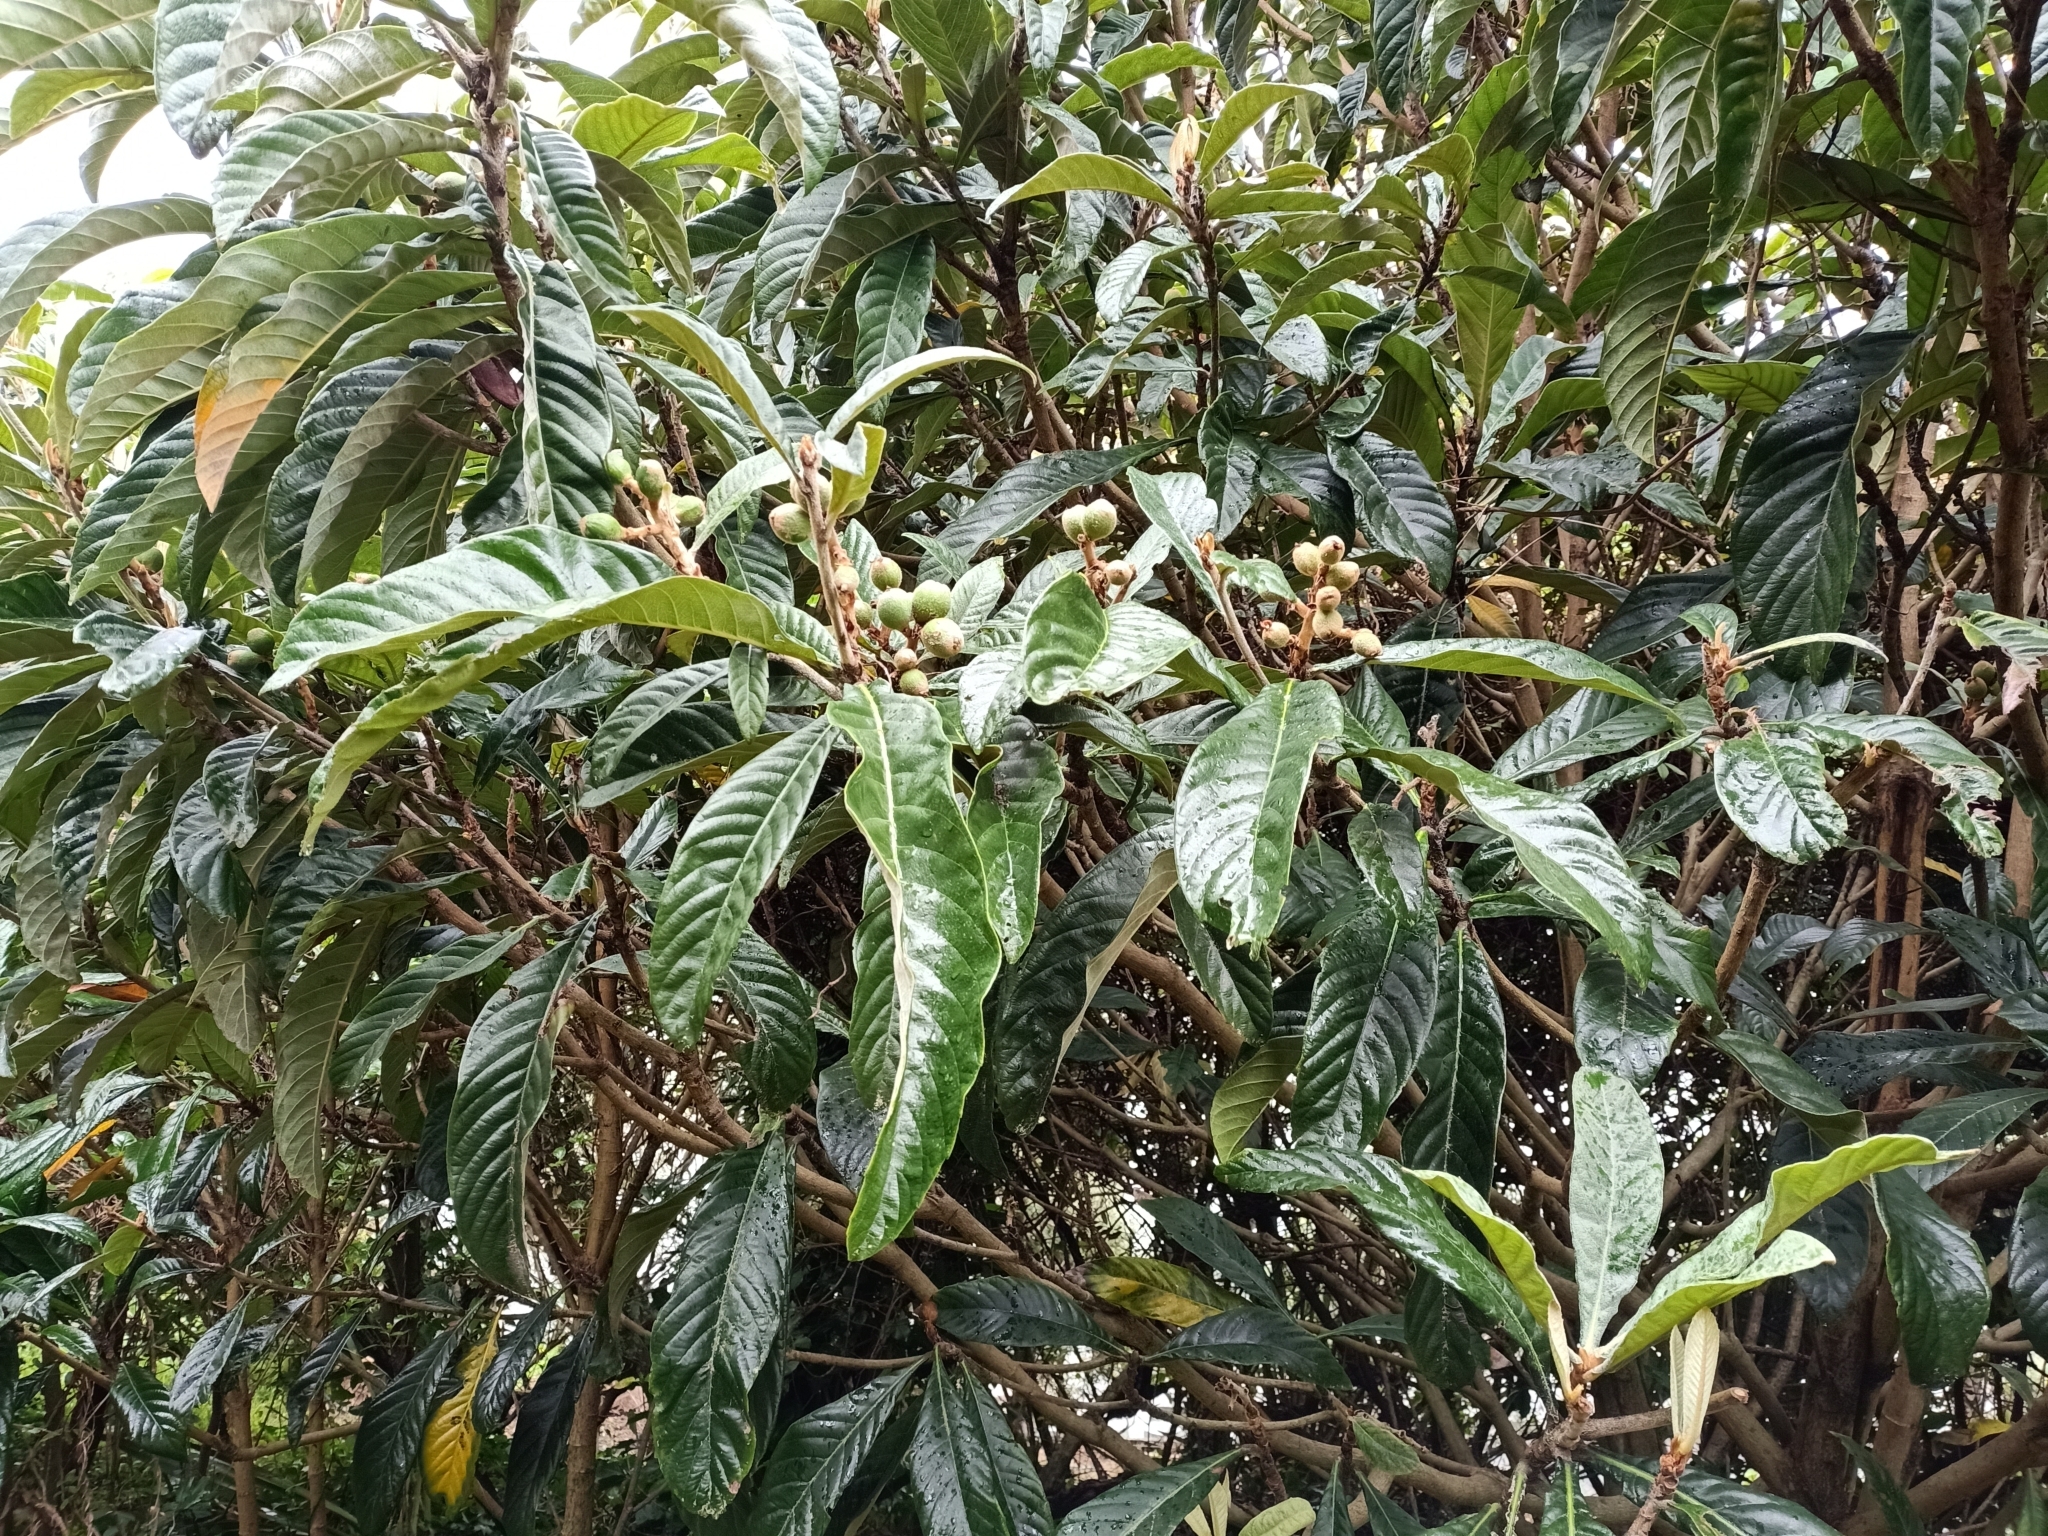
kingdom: Plantae
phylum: Tracheophyta
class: Magnoliopsida
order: Rosales
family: Rosaceae
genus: Rhaphiolepis
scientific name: Rhaphiolepis bibas
